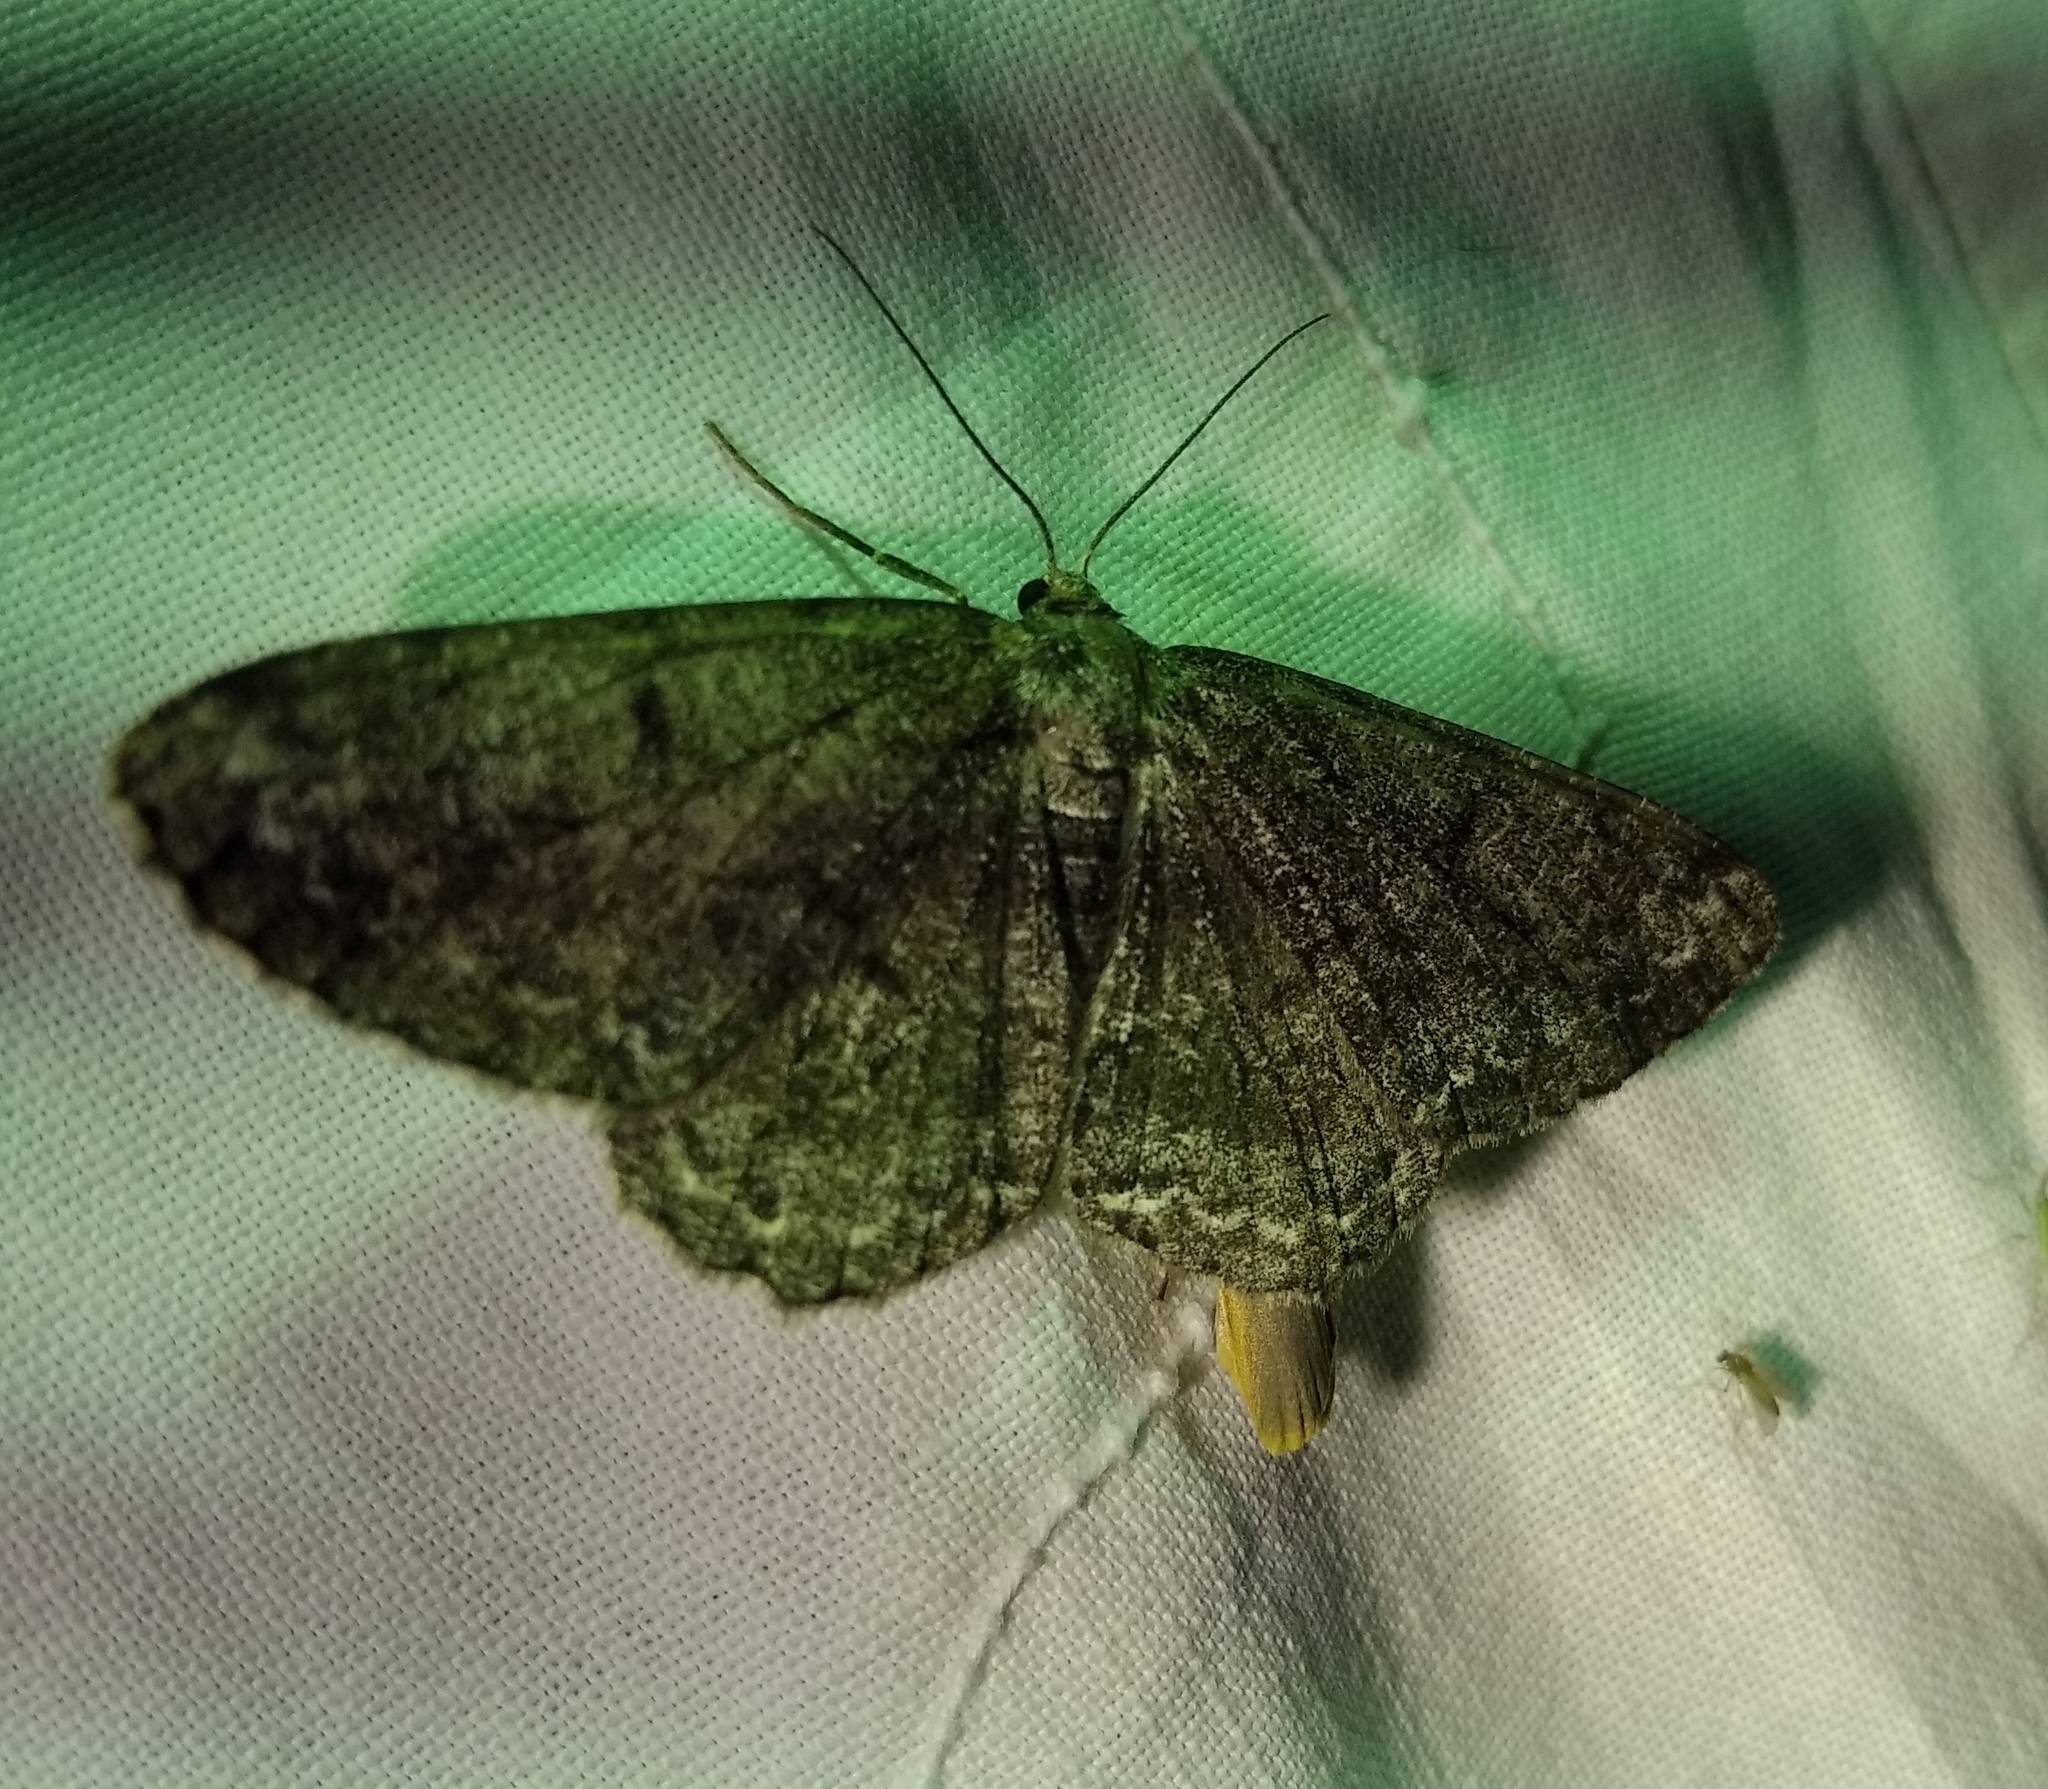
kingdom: Animalia
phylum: Arthropoda
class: Insecta
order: Lepidoptera
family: Geometridae
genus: Hypomecis
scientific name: Hypomecis roboraria
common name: Great oak beauty
